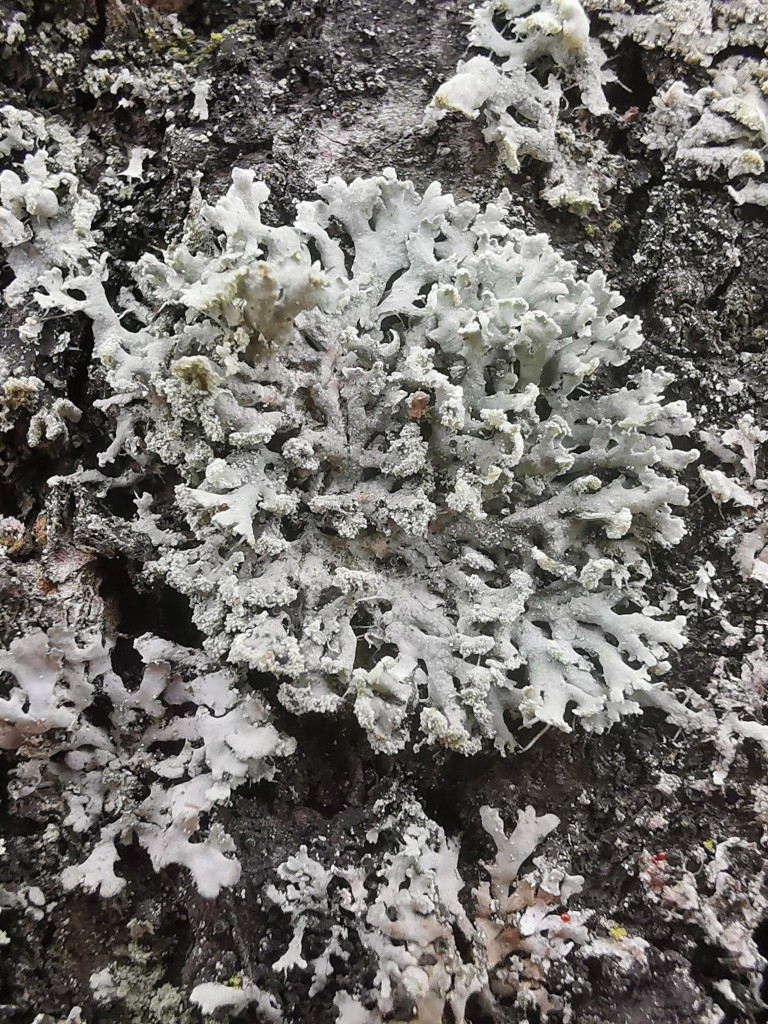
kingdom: Fungi
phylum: Ascomycota
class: Lecanoromycetes
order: Caliciales
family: Physciaceae
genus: Physcia
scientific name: Physcia tenella
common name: Fringed rosette lichen
